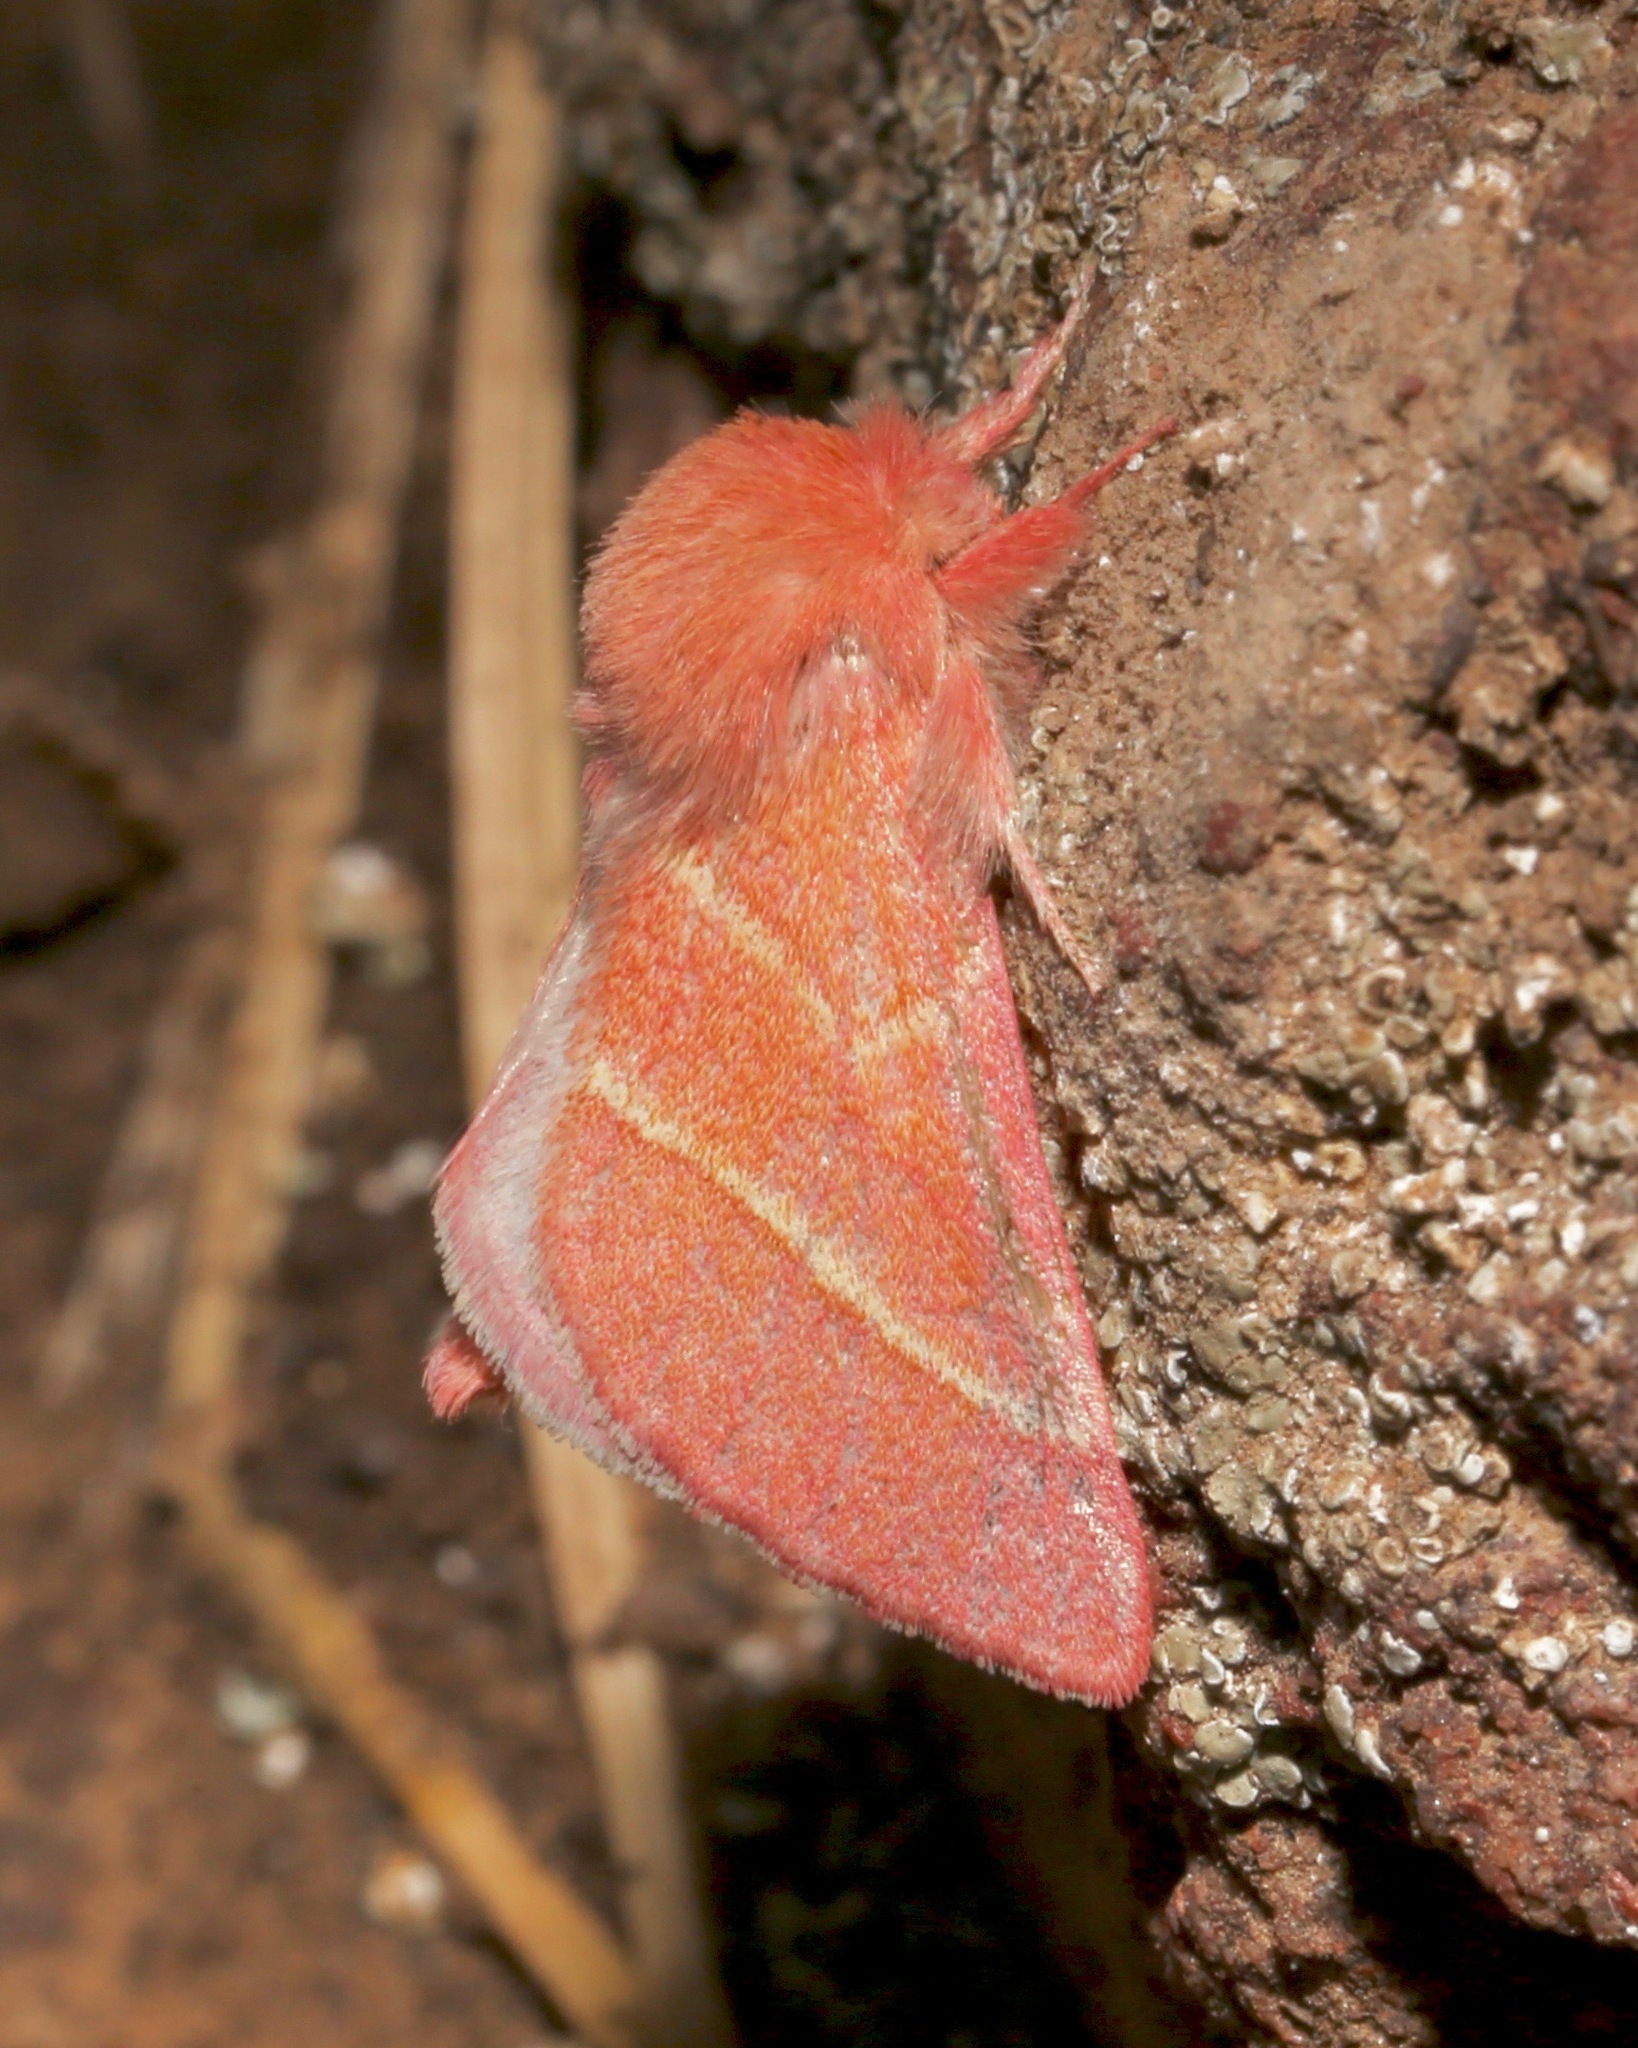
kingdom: Animalia
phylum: Arthropoda
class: Insecta
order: Lepidoptera
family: Notodontidae
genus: Hyparpax
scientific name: Hyparpax venus
